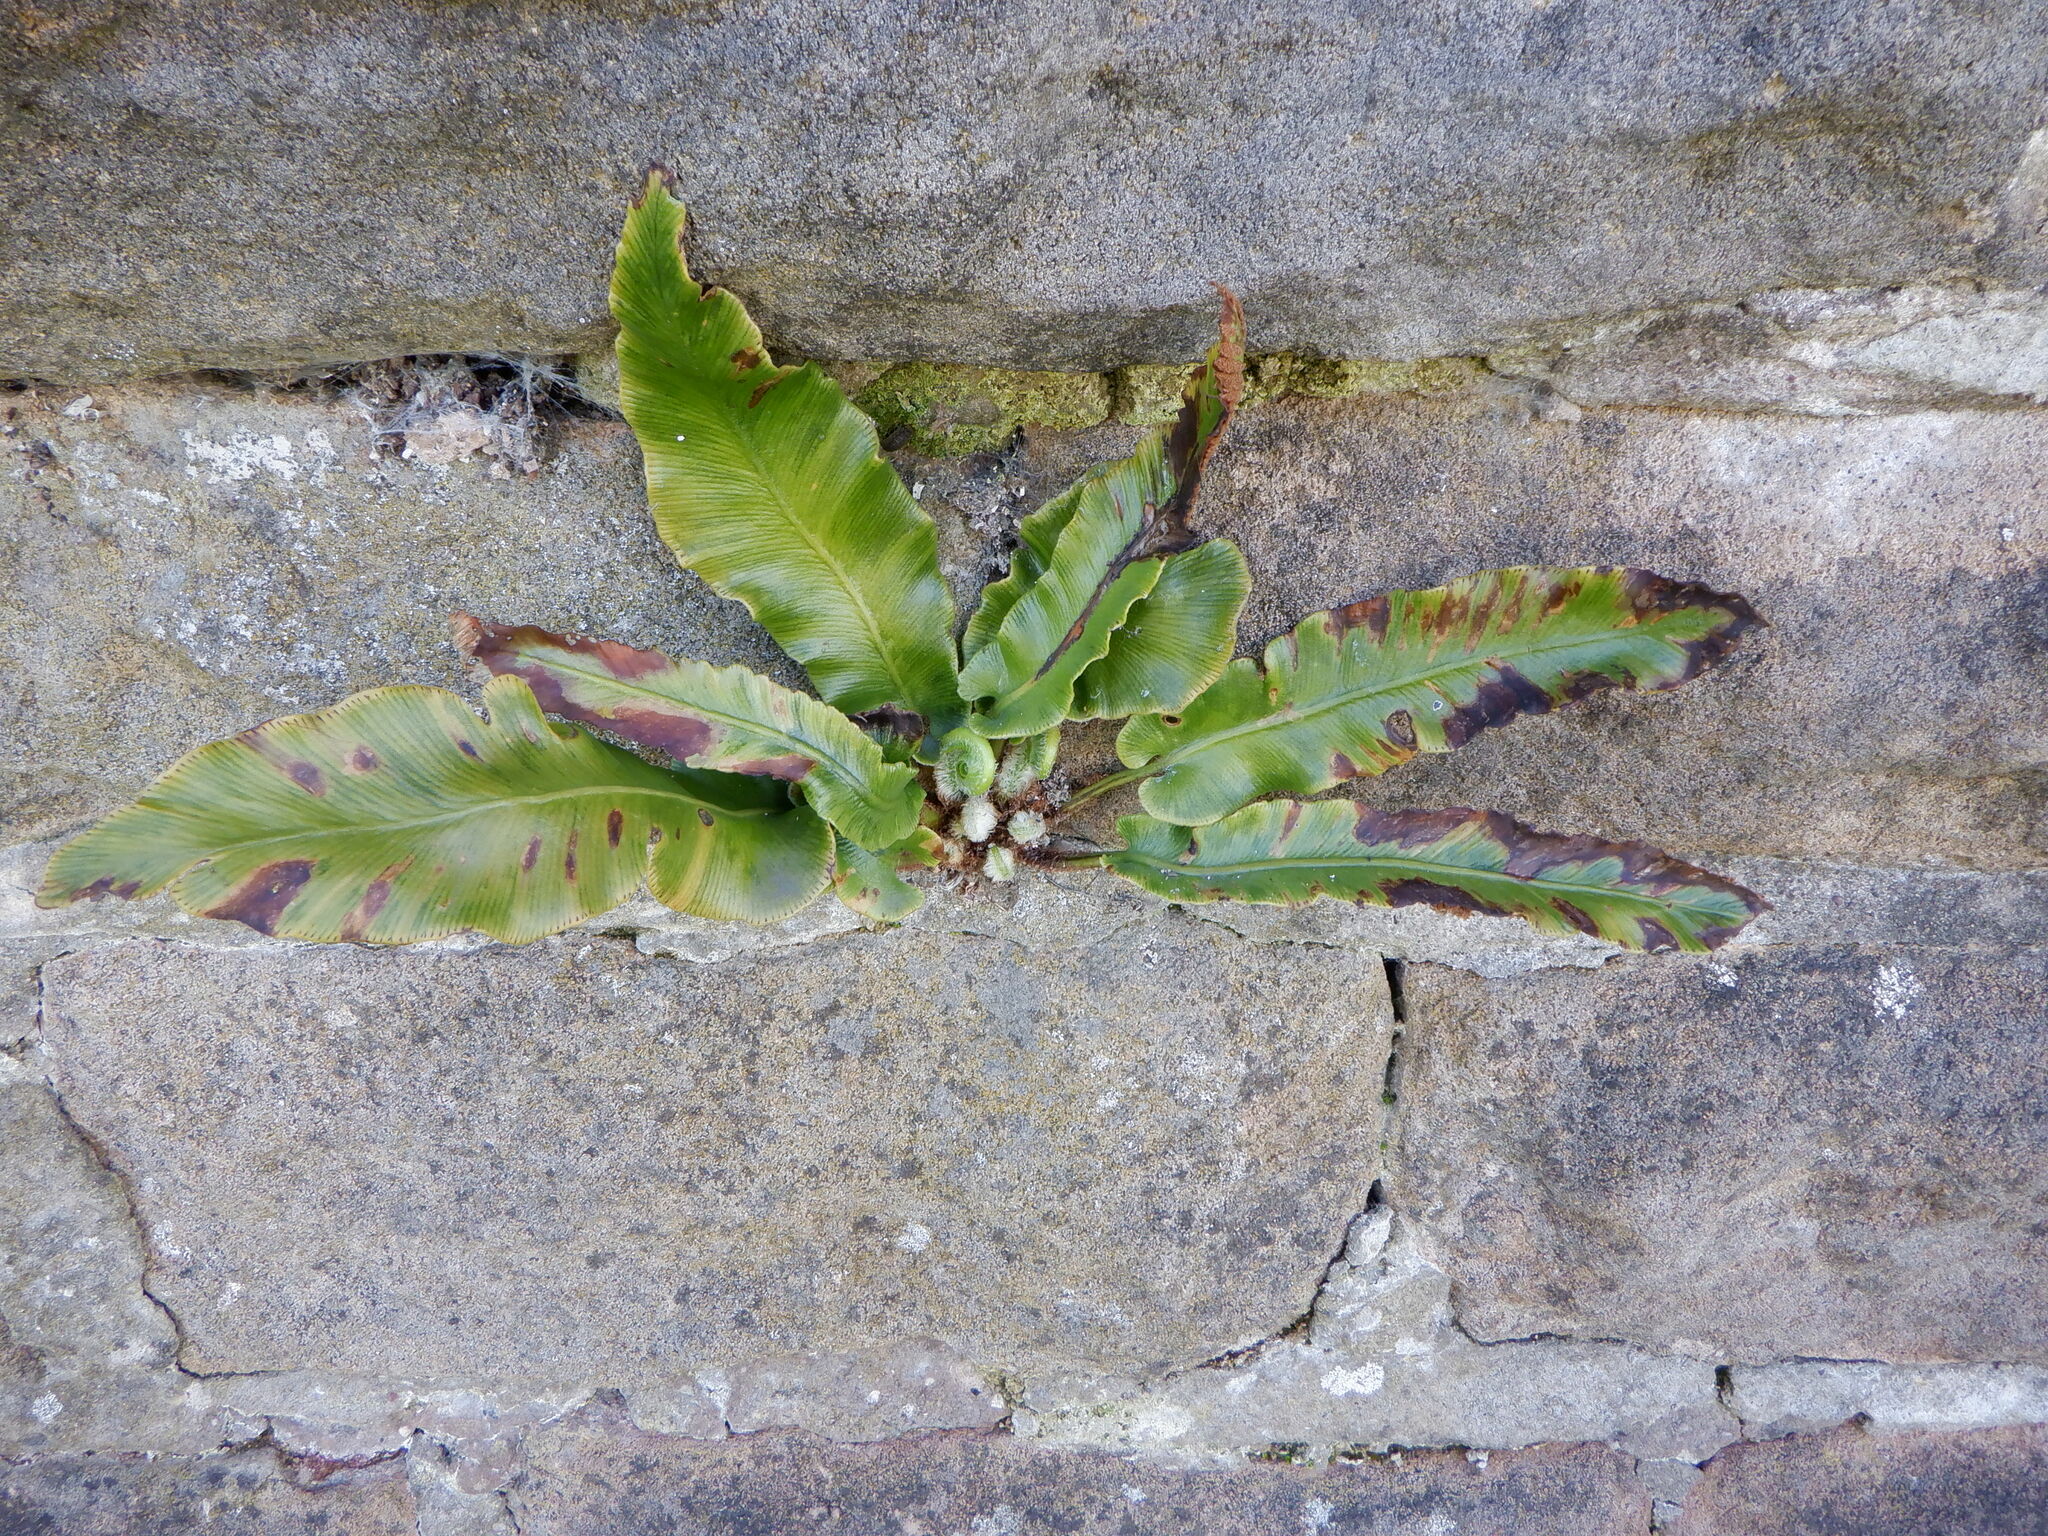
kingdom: Plantae
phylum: Tracheophyta
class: Polypodiopsida
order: Polypodiales
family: Aspleniaceae
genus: Asplenium
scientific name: Asplenium scolopendrium
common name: Hart's-tongue fern
